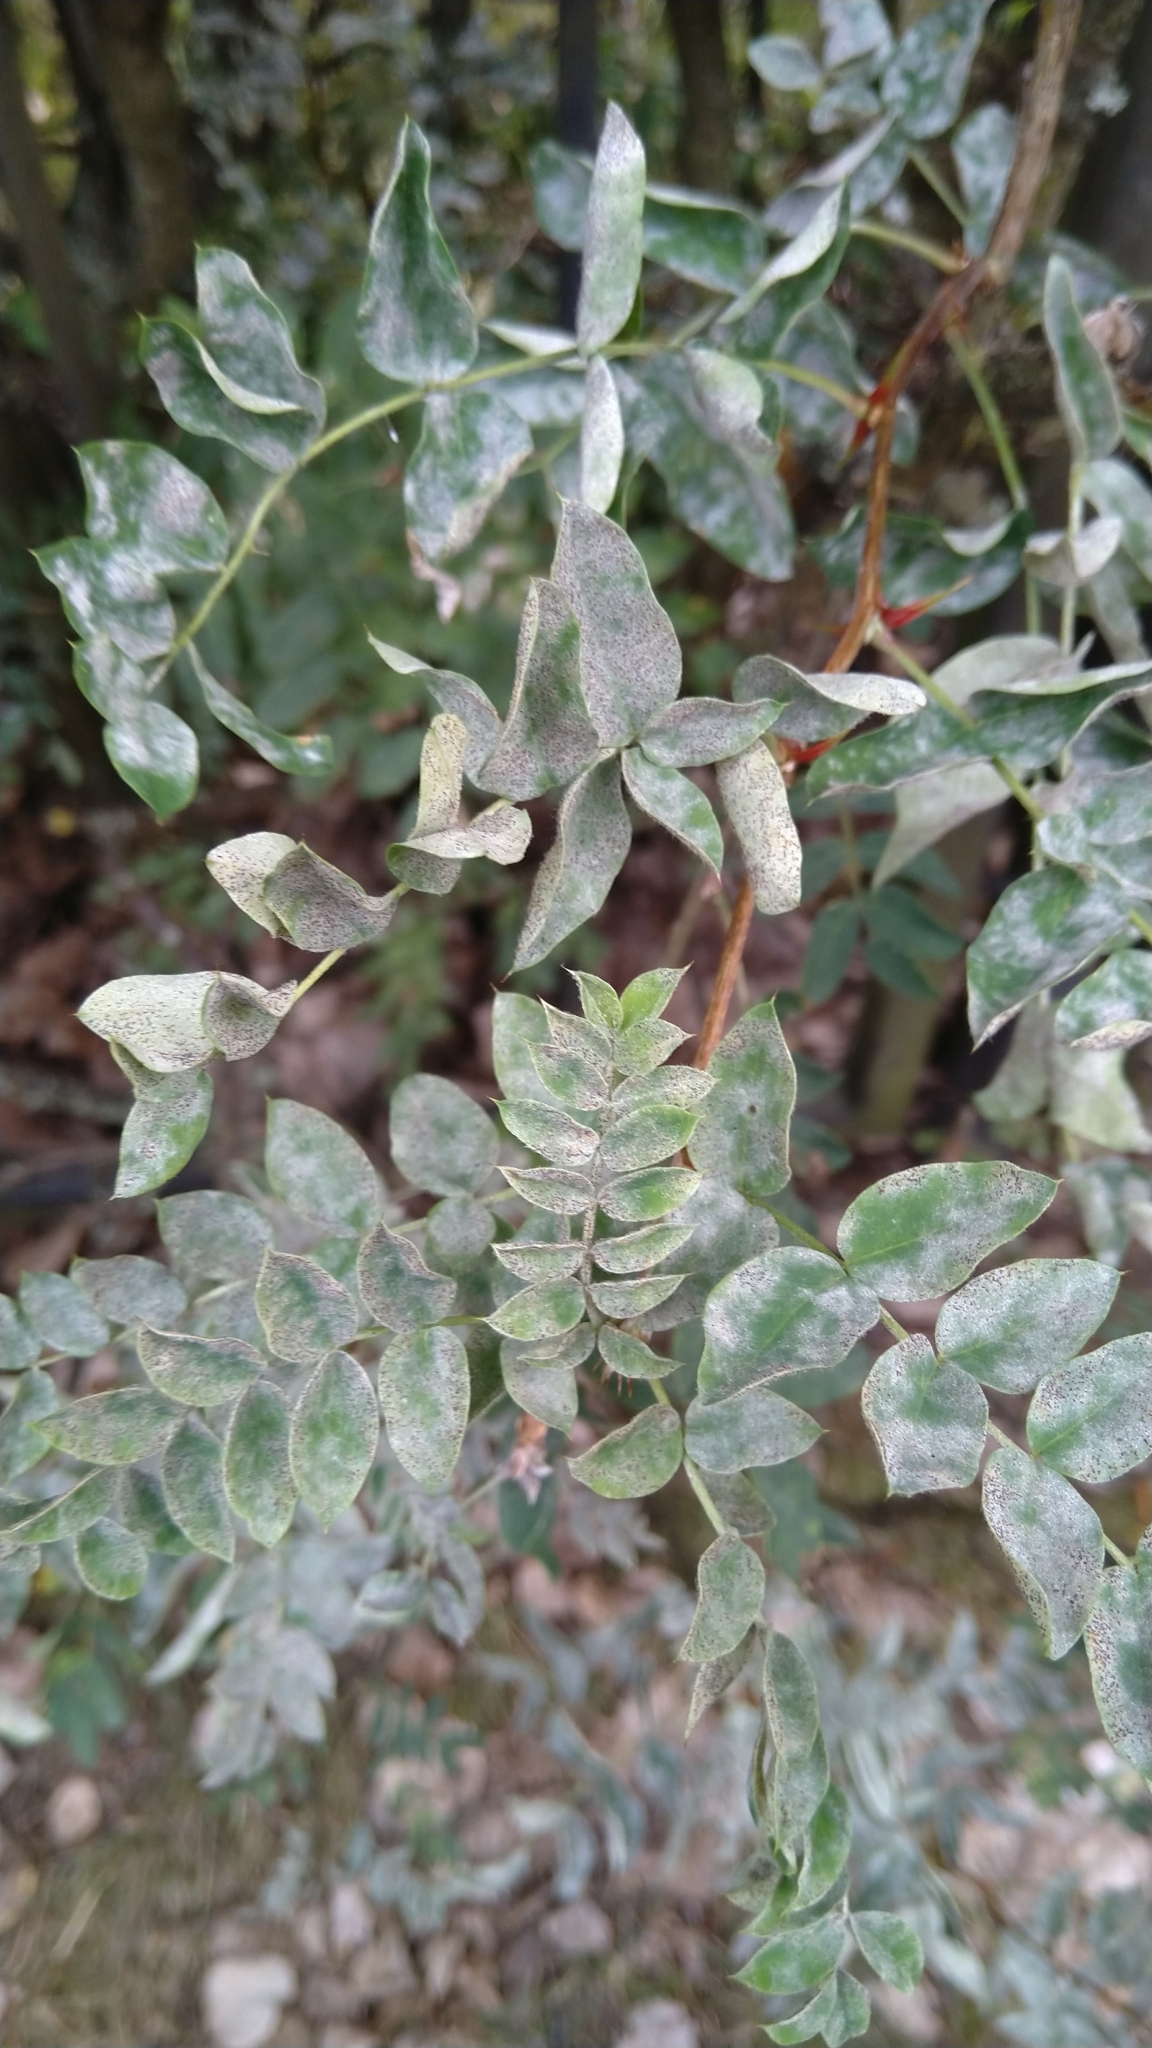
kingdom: Fungi
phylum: Ascomycota
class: Leotiomycetes
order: Helotiales
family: Erysiphaceae
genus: Erysiphe
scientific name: Erysiphe palczewskii
